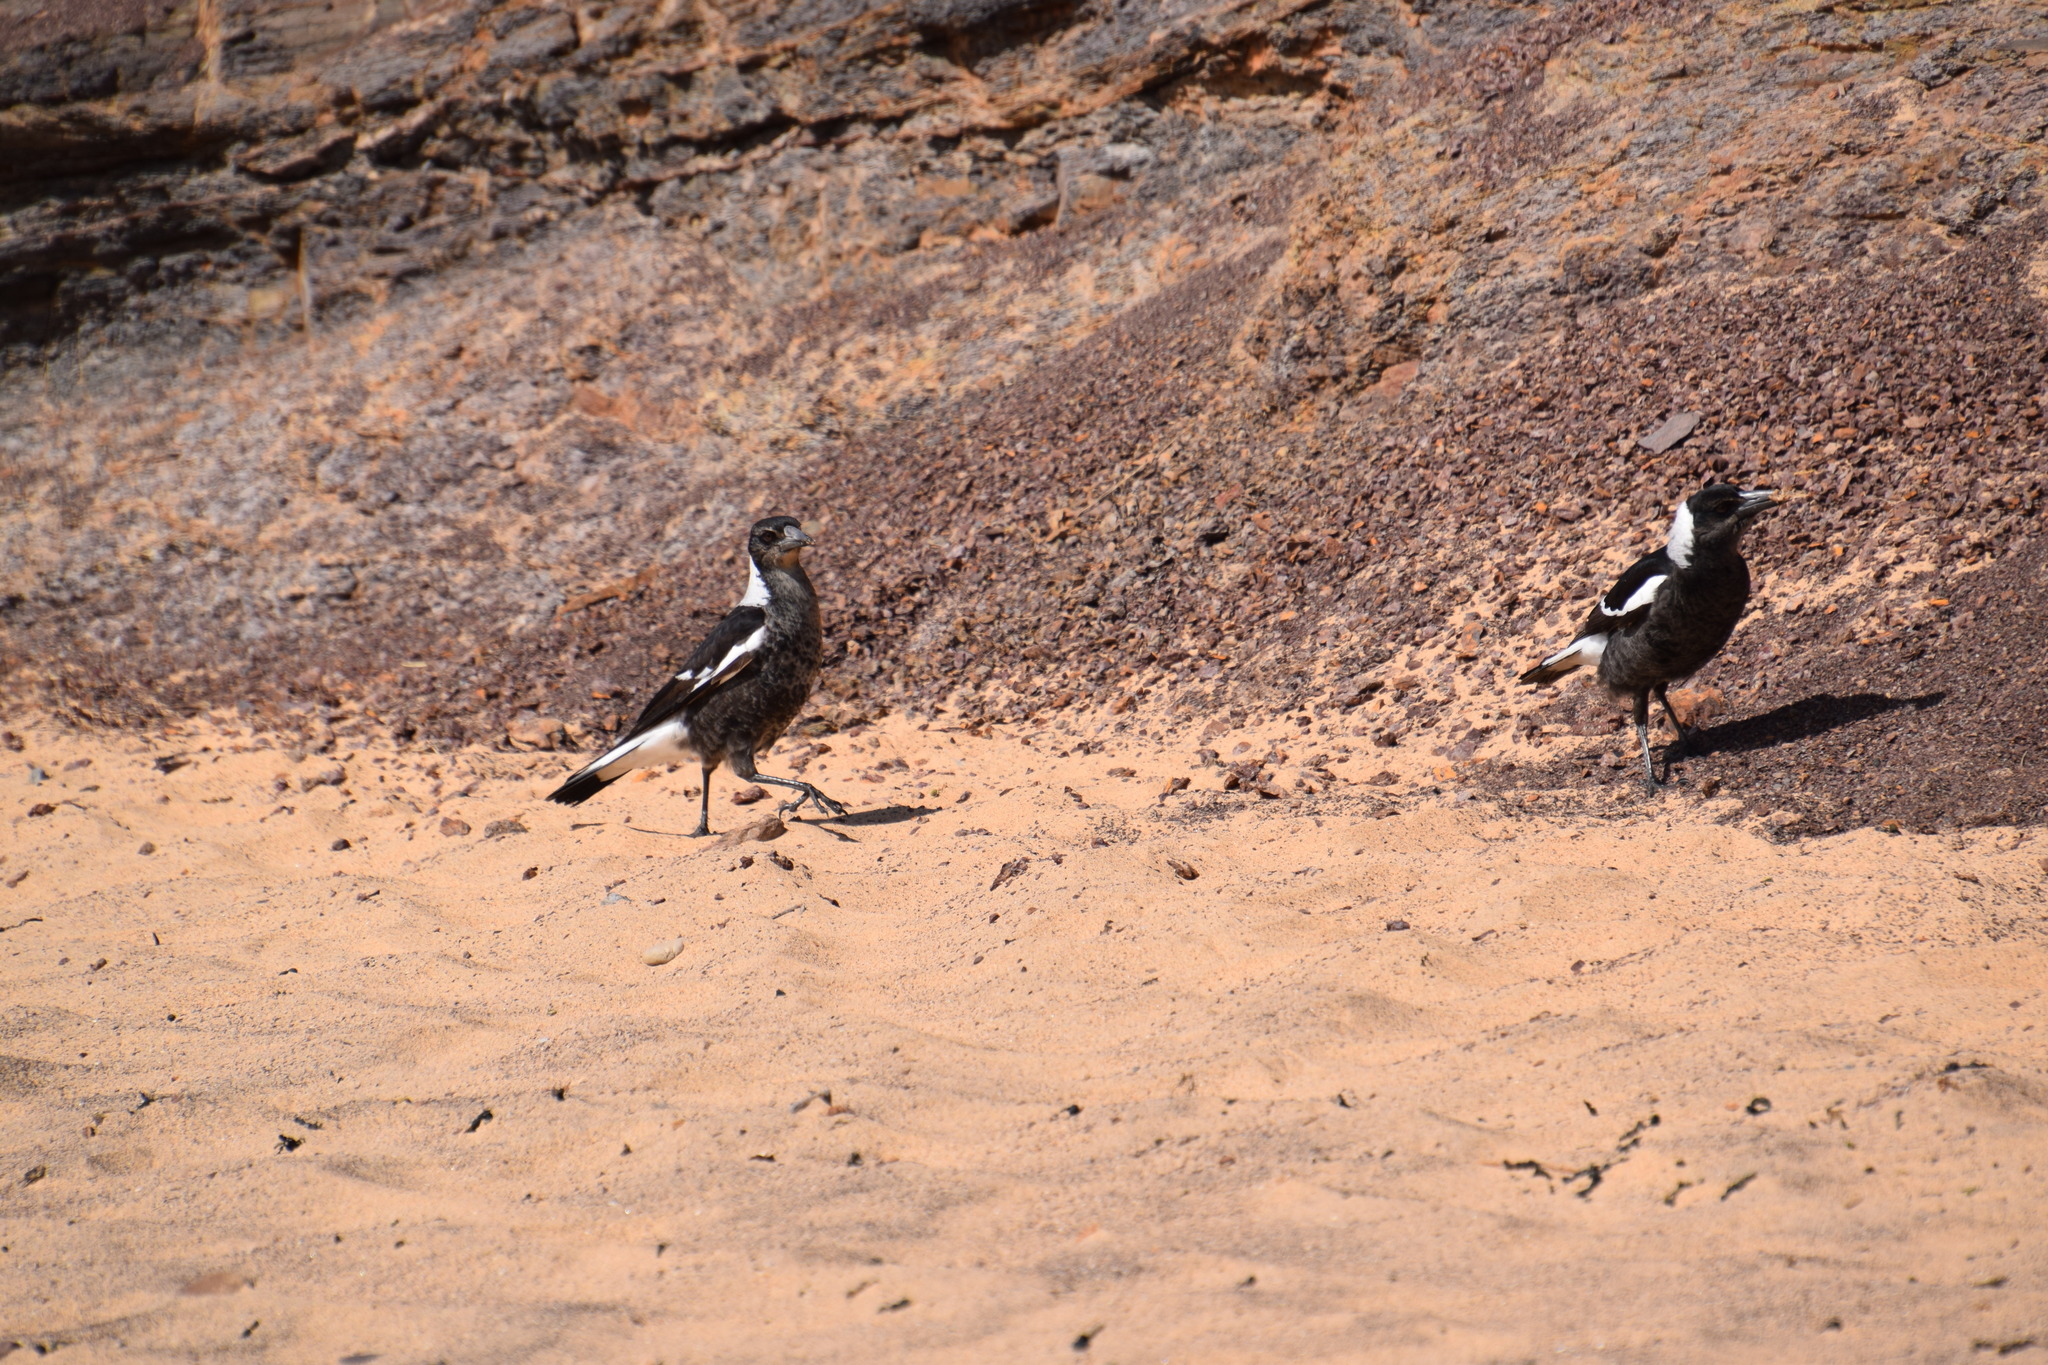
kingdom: Animalia
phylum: Chordata
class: Aves
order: Passeriformes
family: Cracticidae
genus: Gymnorhina
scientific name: Gymnorhina tibicen
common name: Australian magpie
